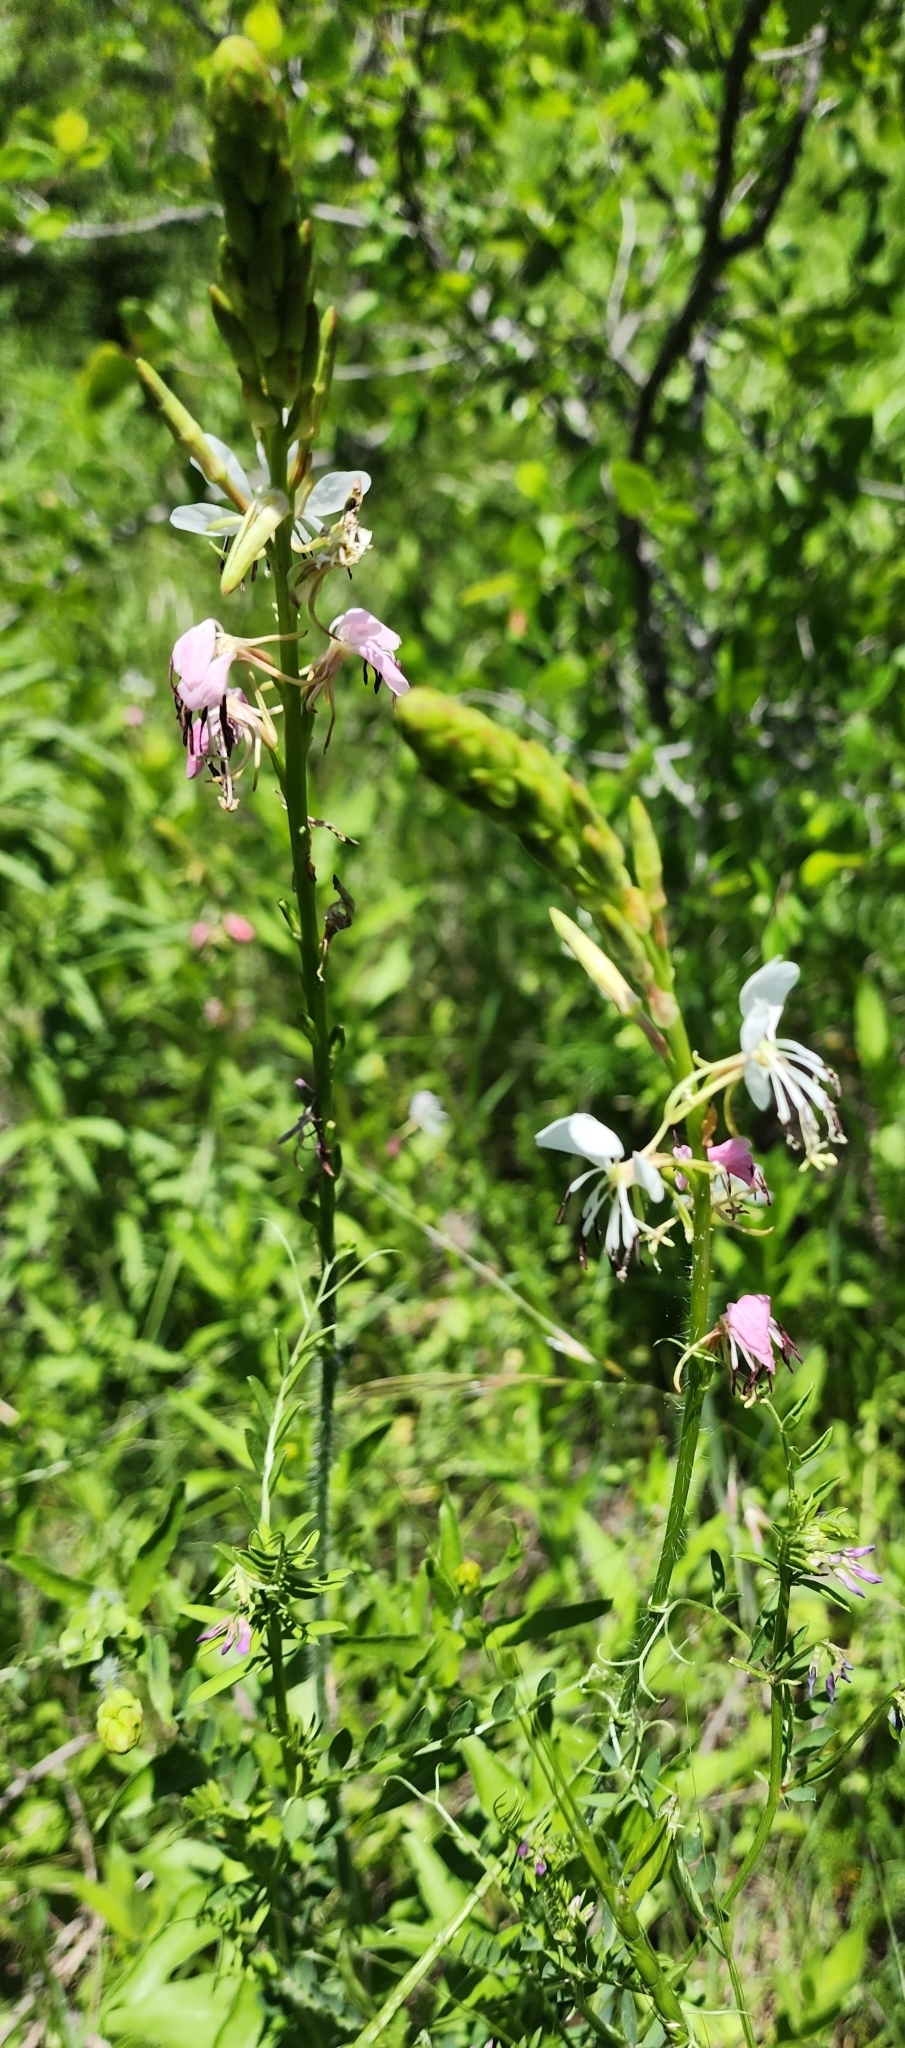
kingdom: Plantae
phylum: Tracheophyta
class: Magnoliopsida
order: Myrtales
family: Onagraceae
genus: Oenothera
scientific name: Oenothera suffulta
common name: Kisses
